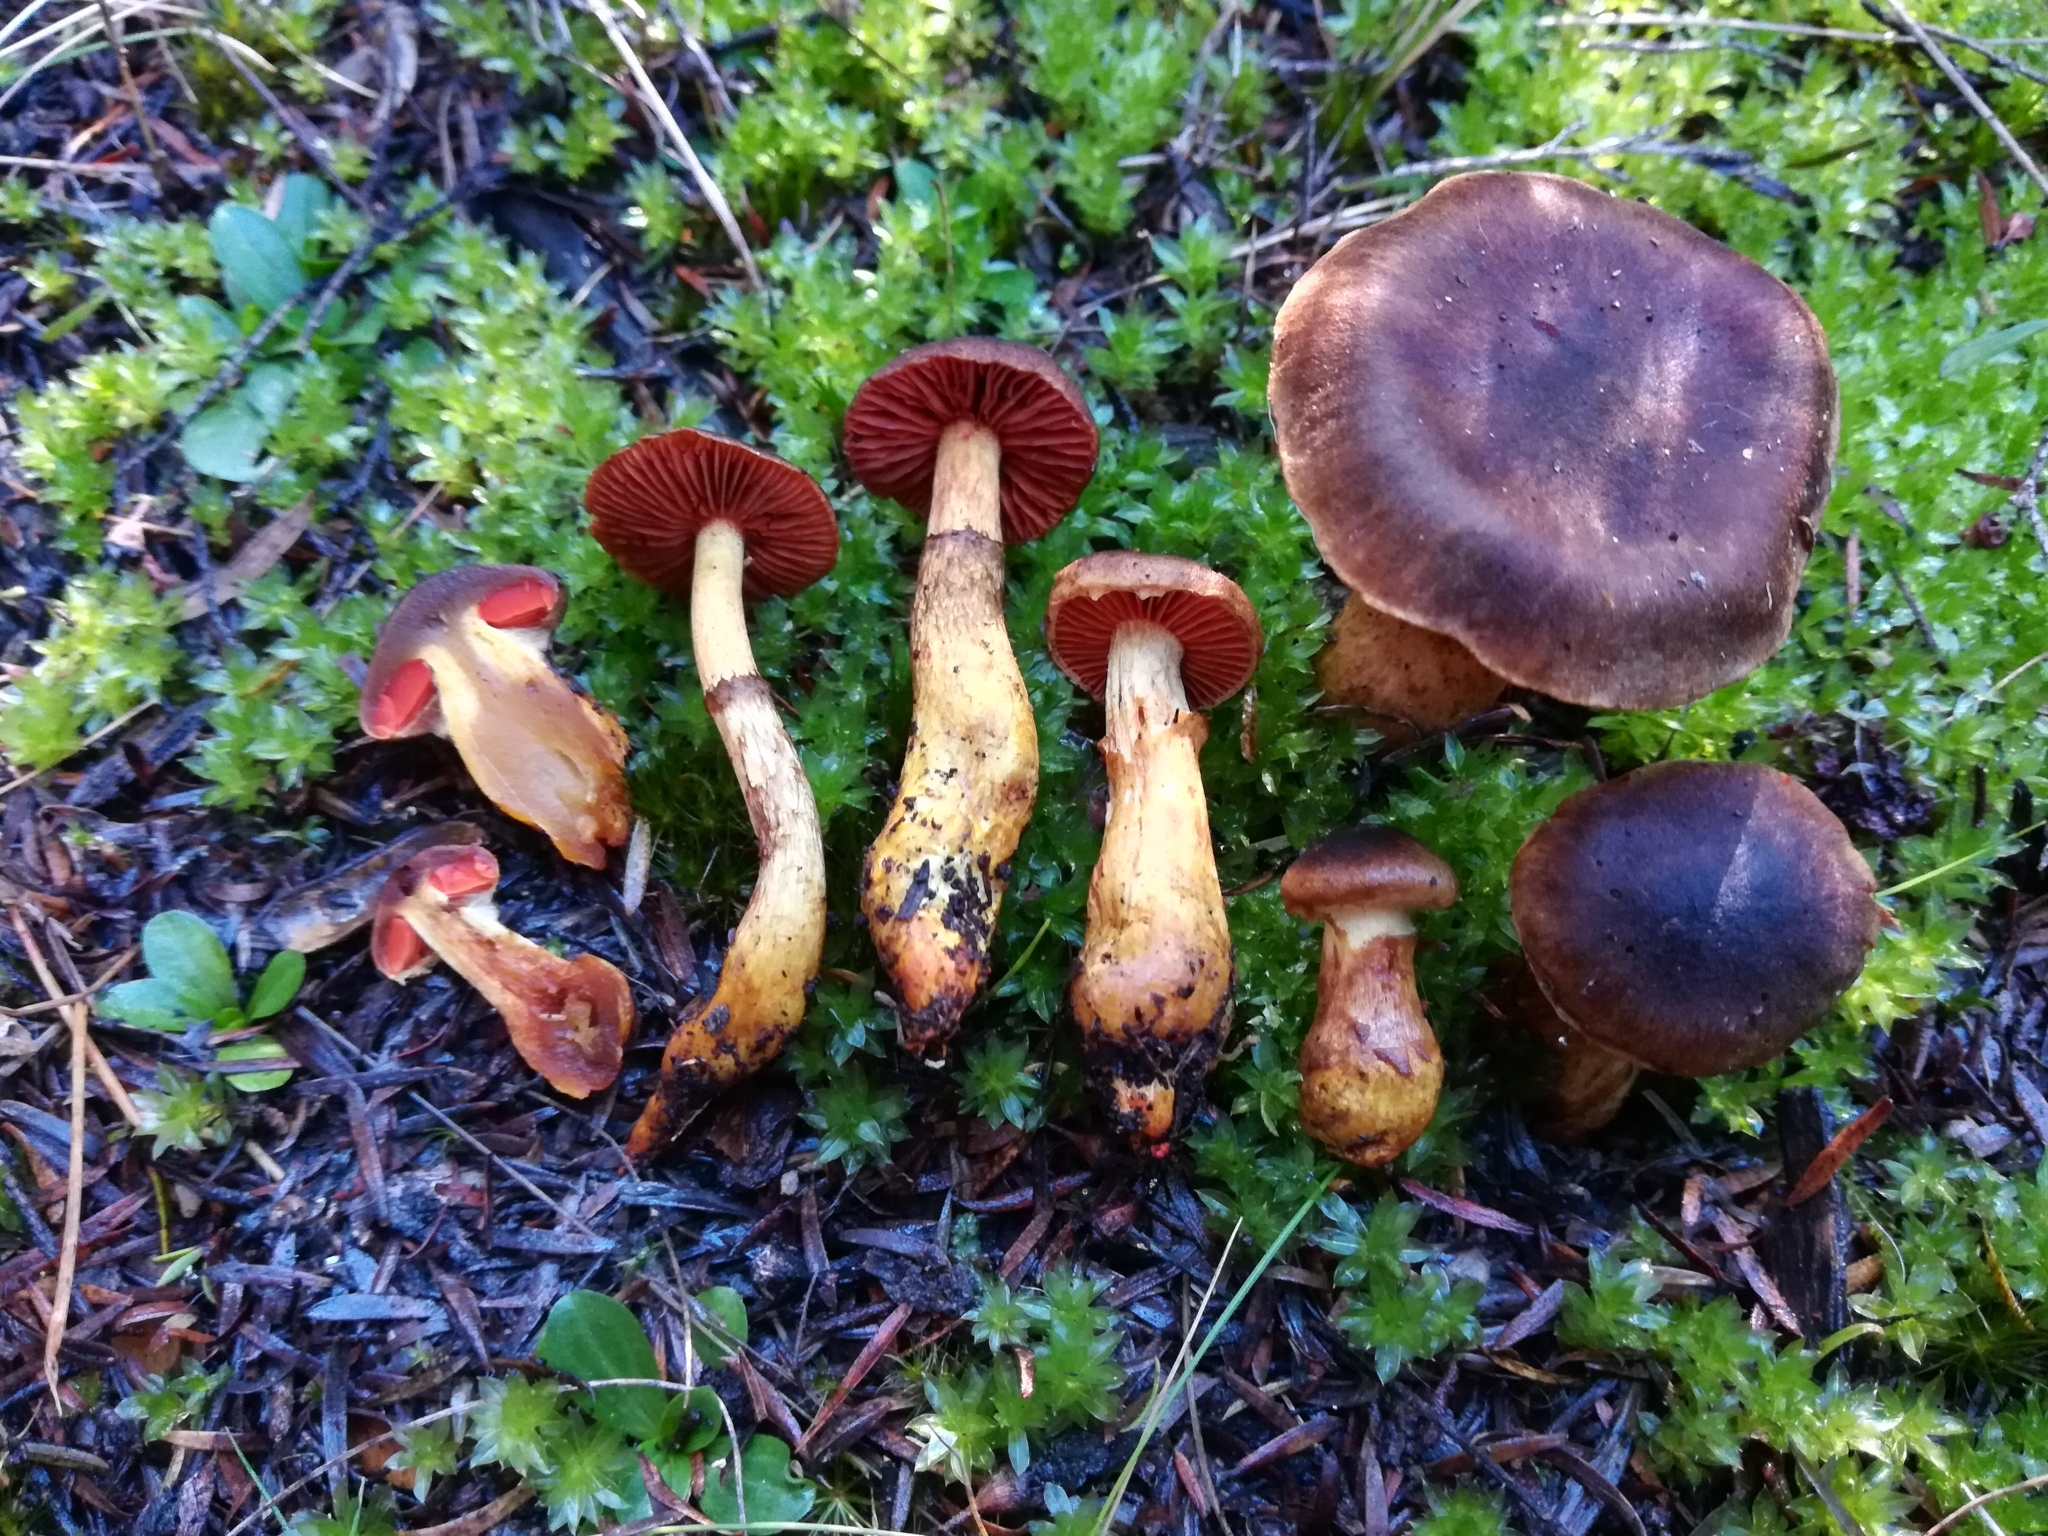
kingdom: Fungi
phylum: Basidiomycota
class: Agaricomycetes
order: Agaricales
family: Cortinariaceae
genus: Cortinarius
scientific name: Cortinarius persplendidus
